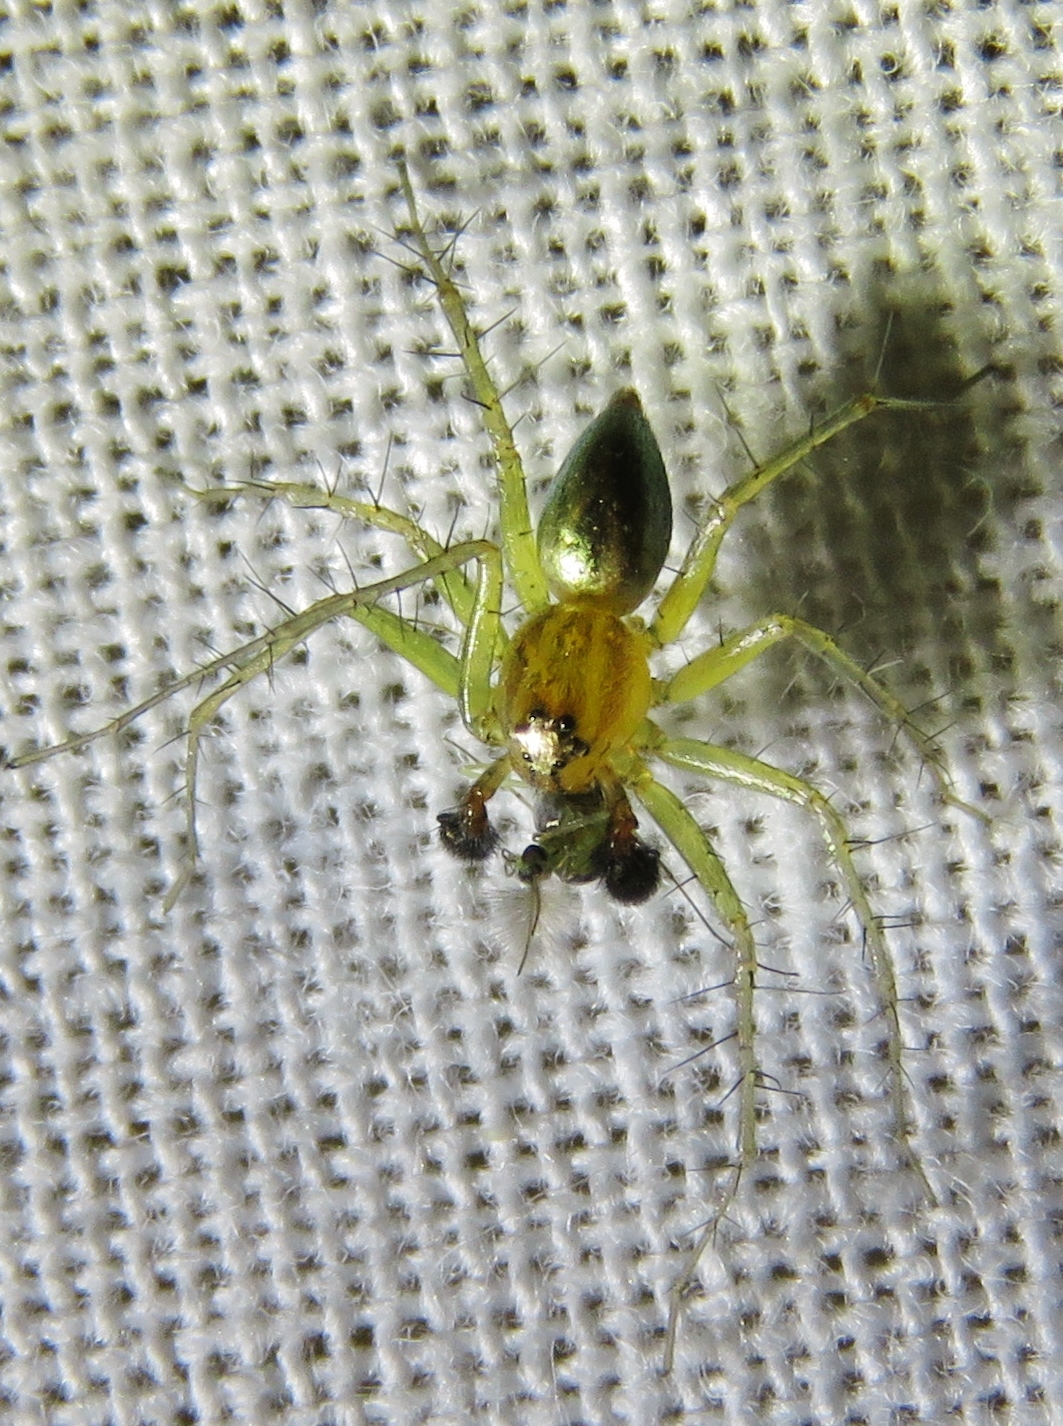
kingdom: Animalia
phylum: Arthropoda
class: Arachnida
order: Araneae
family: Oxyopidae
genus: Oxyopes
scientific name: Oxyopes salticus
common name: Lynx spiders
